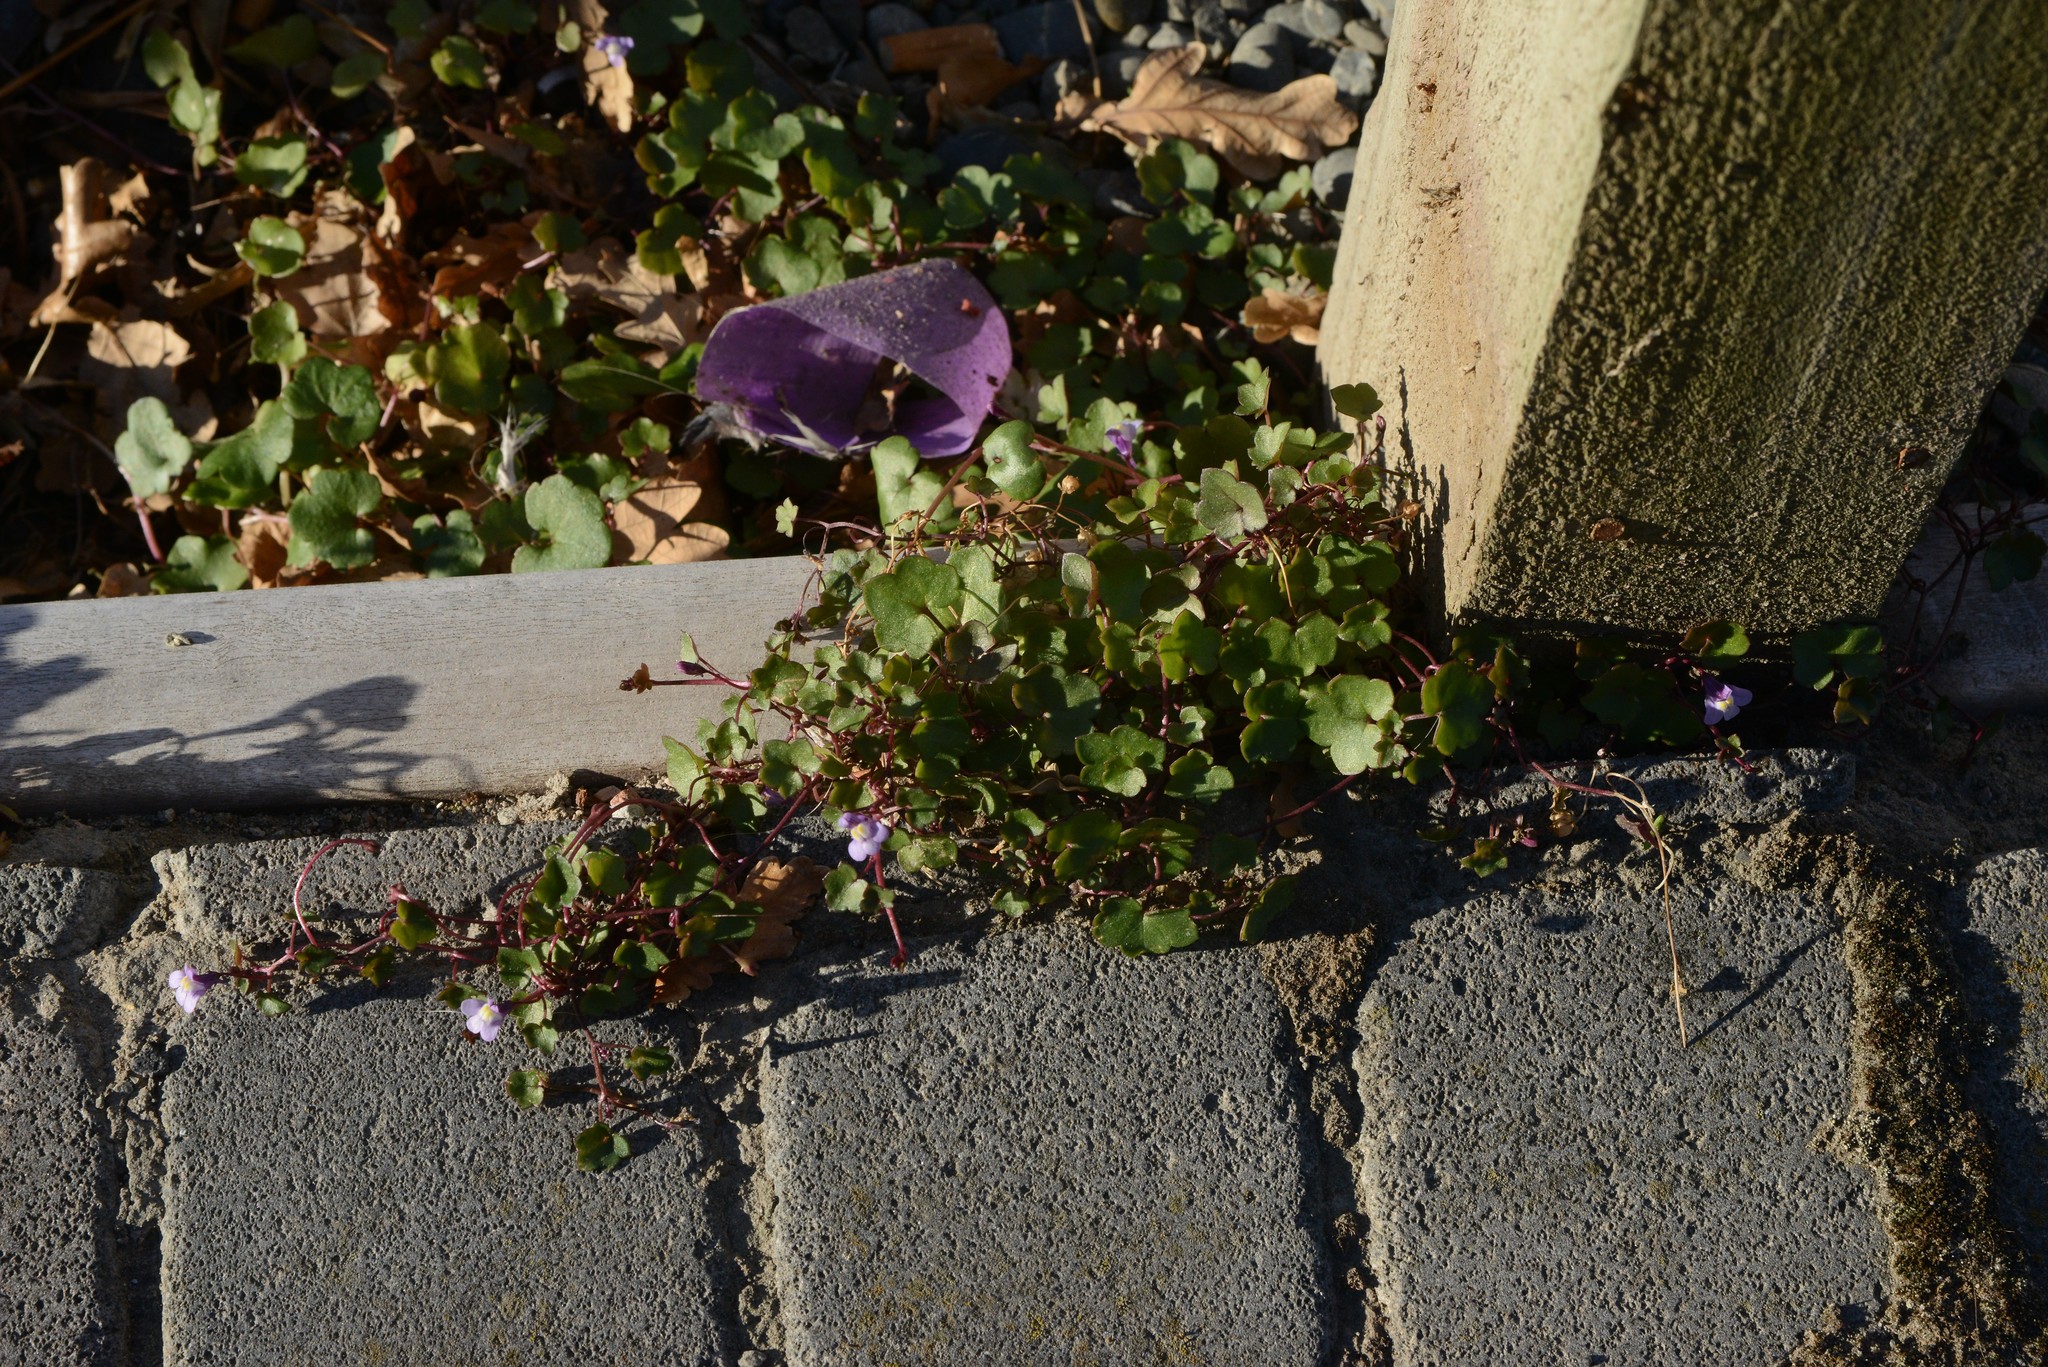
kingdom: Plantae
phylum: Tracheophyta
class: Magnoliopsida
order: Lamiales
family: Plantaginaceae
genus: Cymbalaria
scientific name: Cymbalaria muralis
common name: Ivy-leaved toadflax
